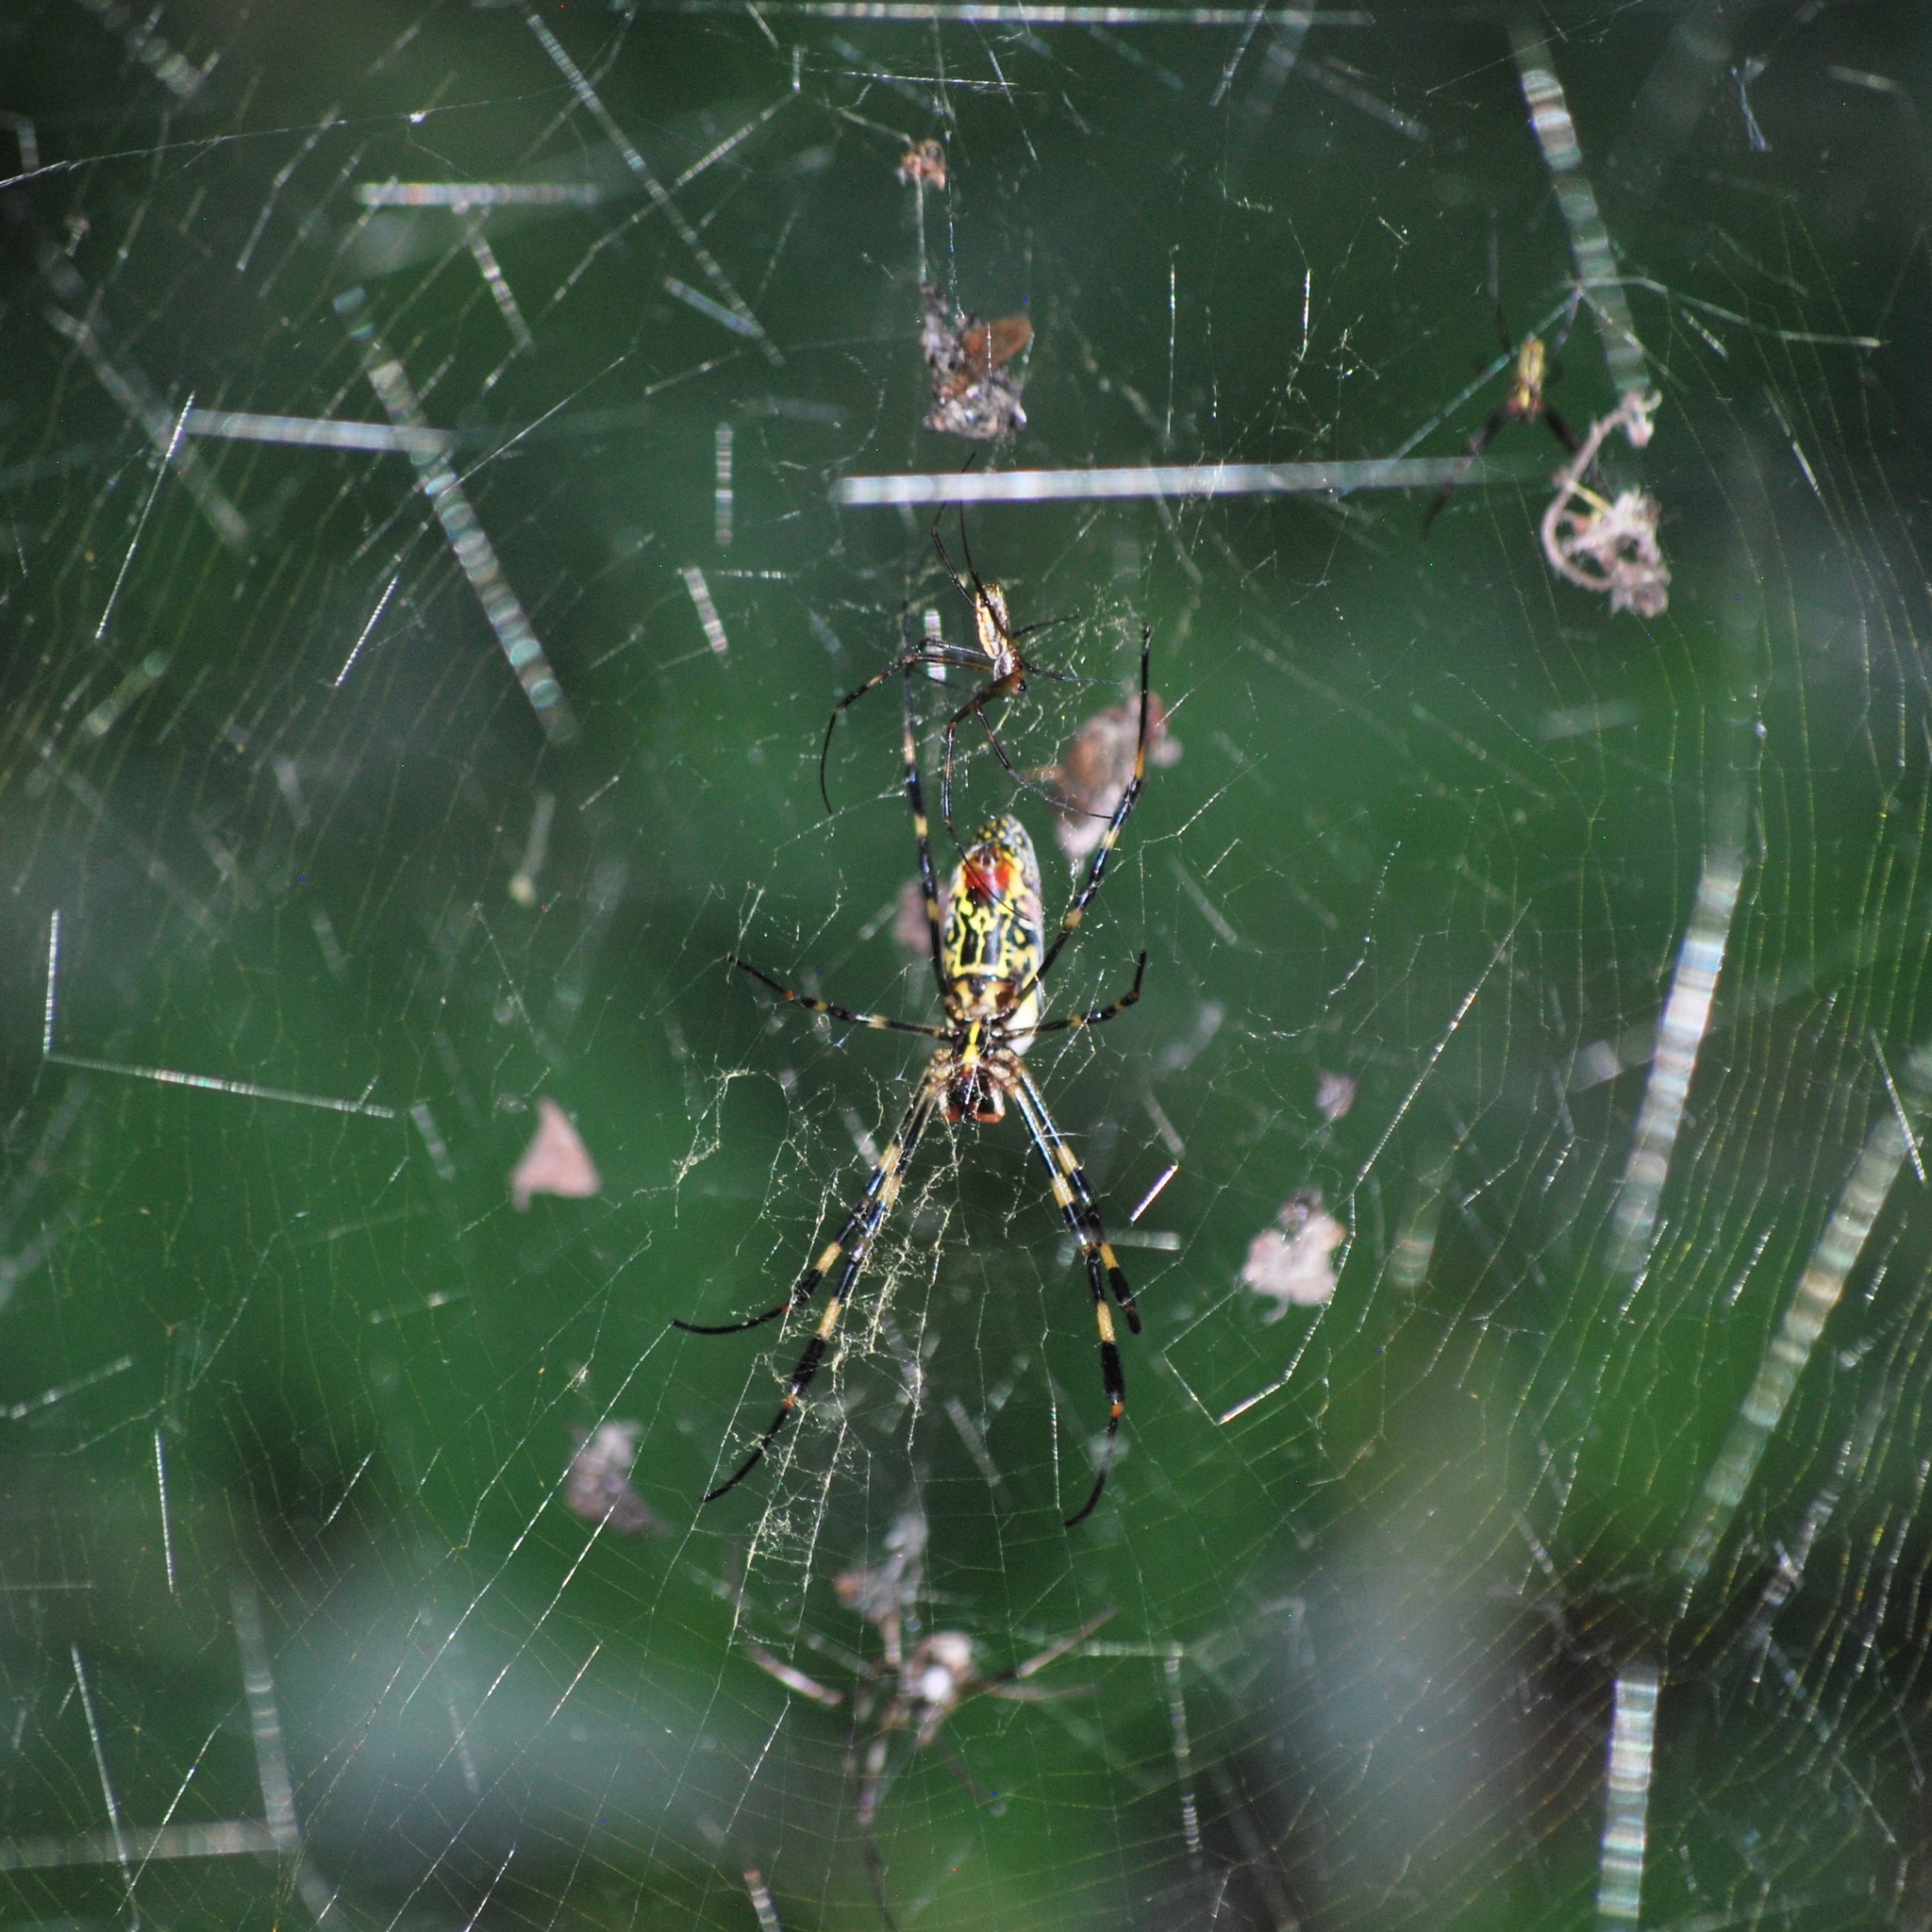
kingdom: Animalia
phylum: Arthropoda
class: Arachnida
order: Araneae
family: Araneidae
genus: Trichonephila
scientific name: Trichonephila clavata
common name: Jorō spider
